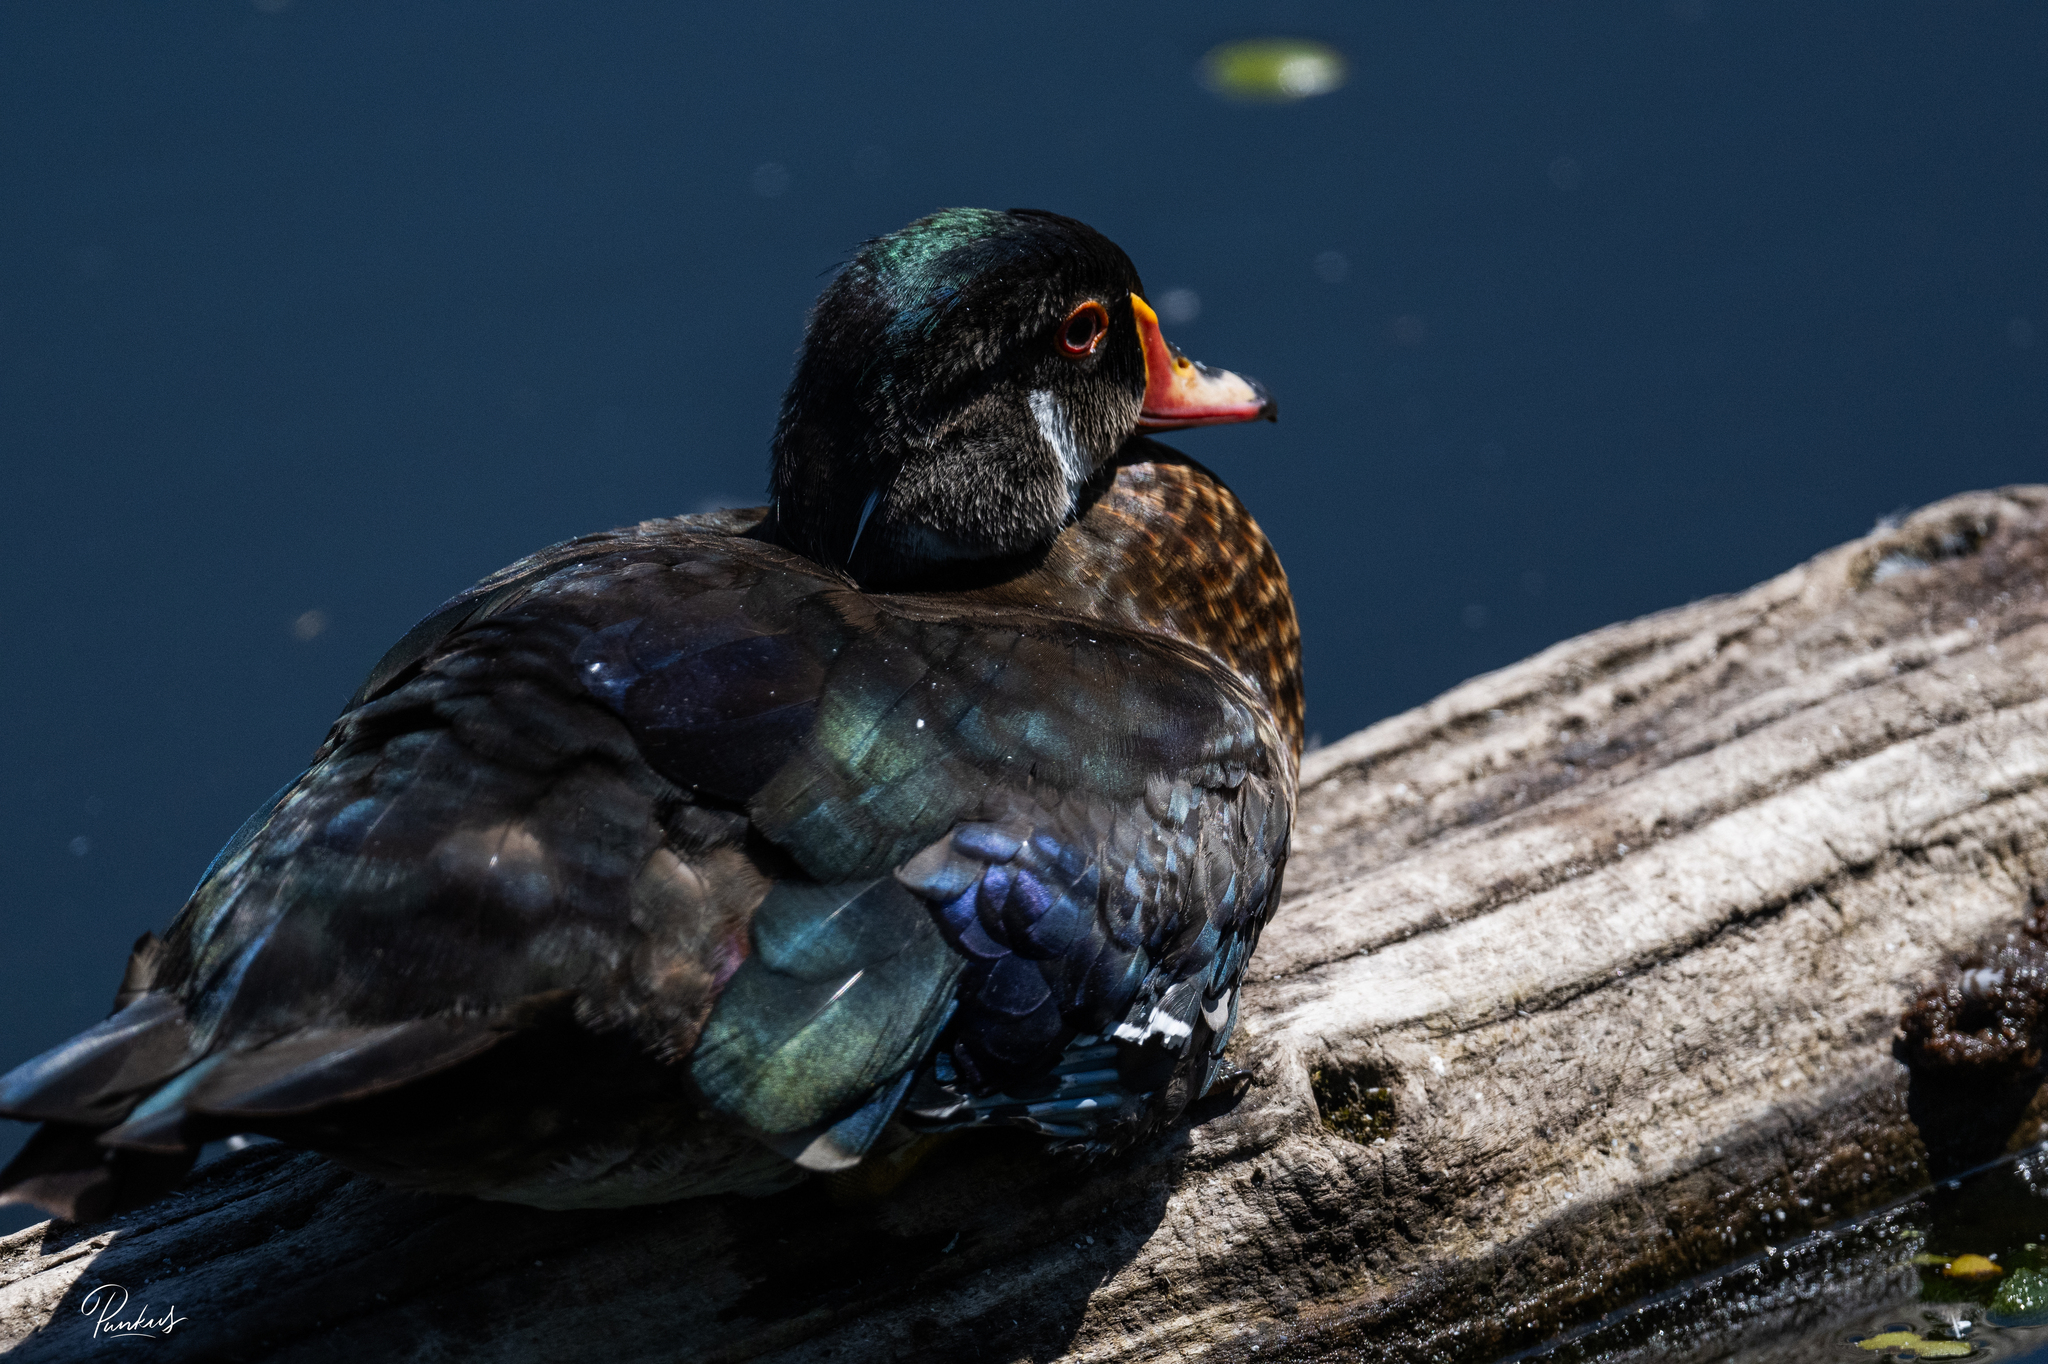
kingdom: Animalia
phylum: Chordata
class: Aves
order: Anseriformes
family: Anatidae
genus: Aix
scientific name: Aix sponsa
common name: Wood duck
